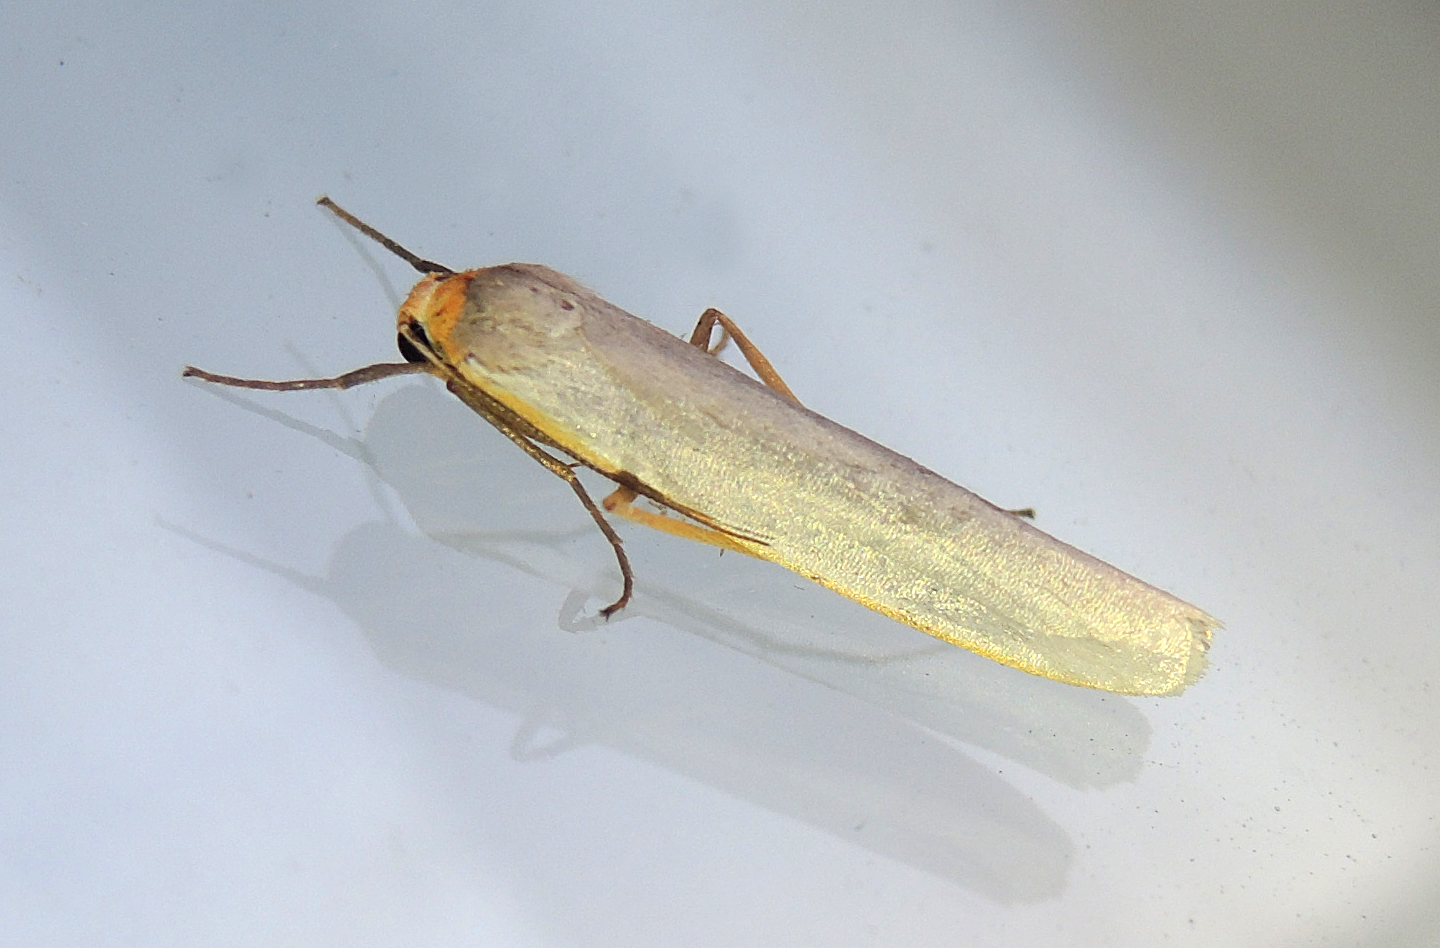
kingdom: Animalia
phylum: Arthropoda
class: Insecta
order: Lepidoptera
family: Erebidae
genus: Eilema
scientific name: Eilema caniola
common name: Hoary footman
